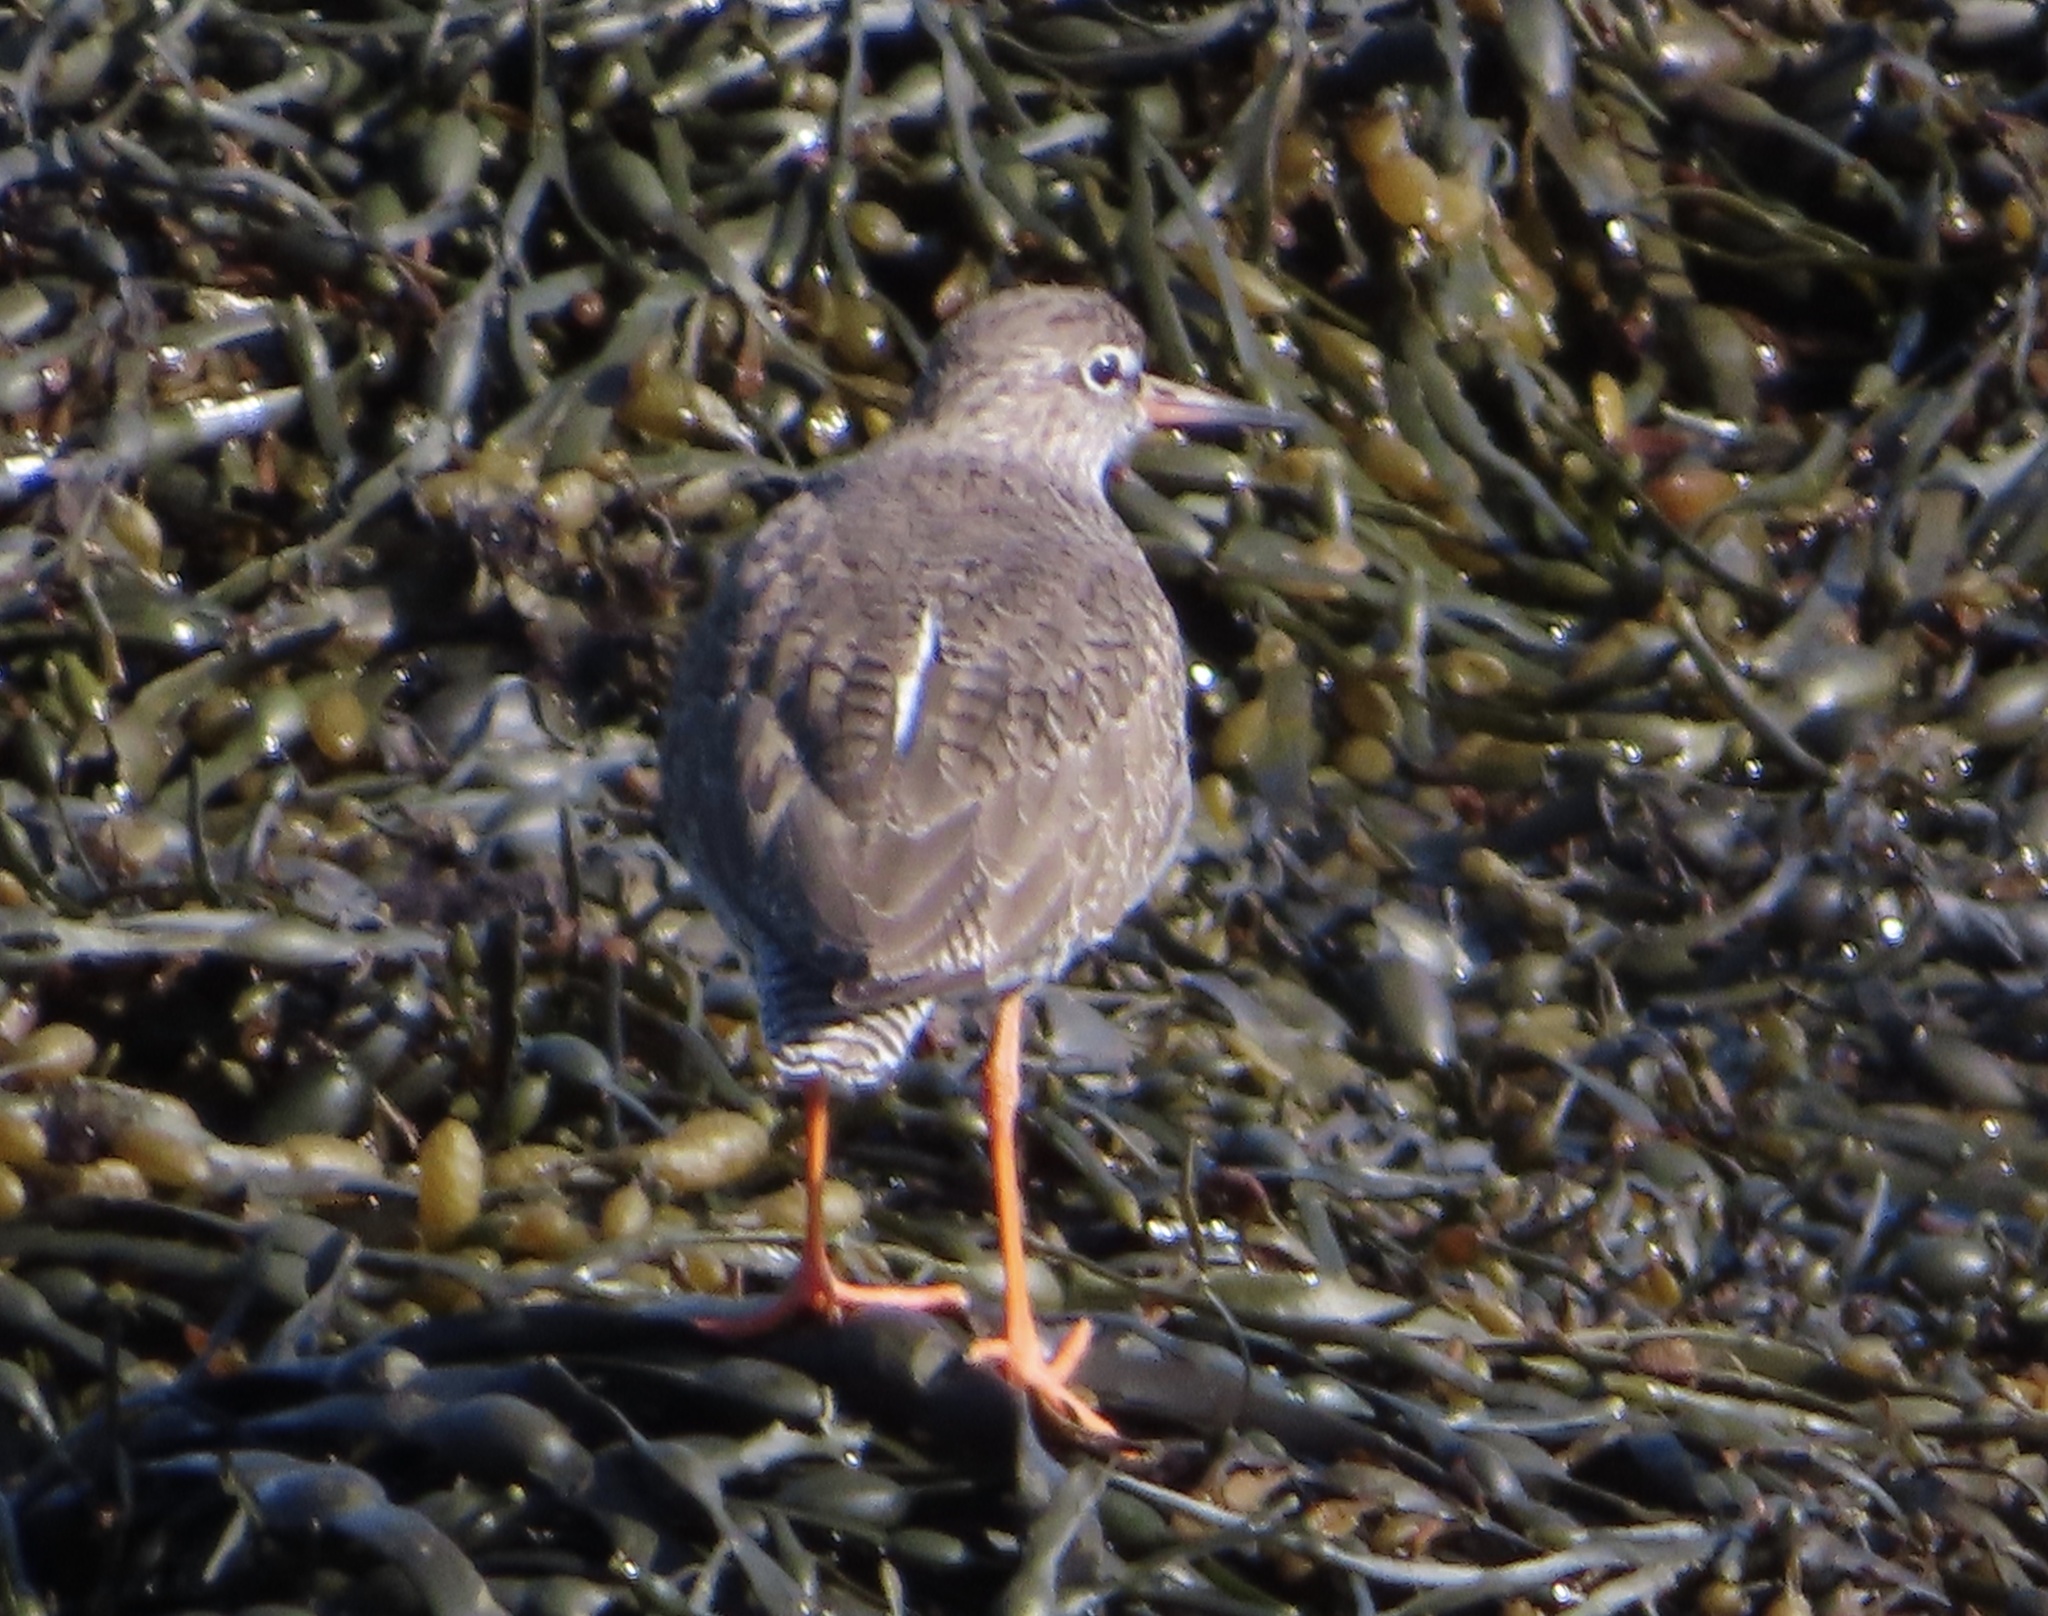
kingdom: Animalia
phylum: Chordata
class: Aves
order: Charadriiformes
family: Scolopacidae
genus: Tringa
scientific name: Tringa totanus
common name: Common redshank
